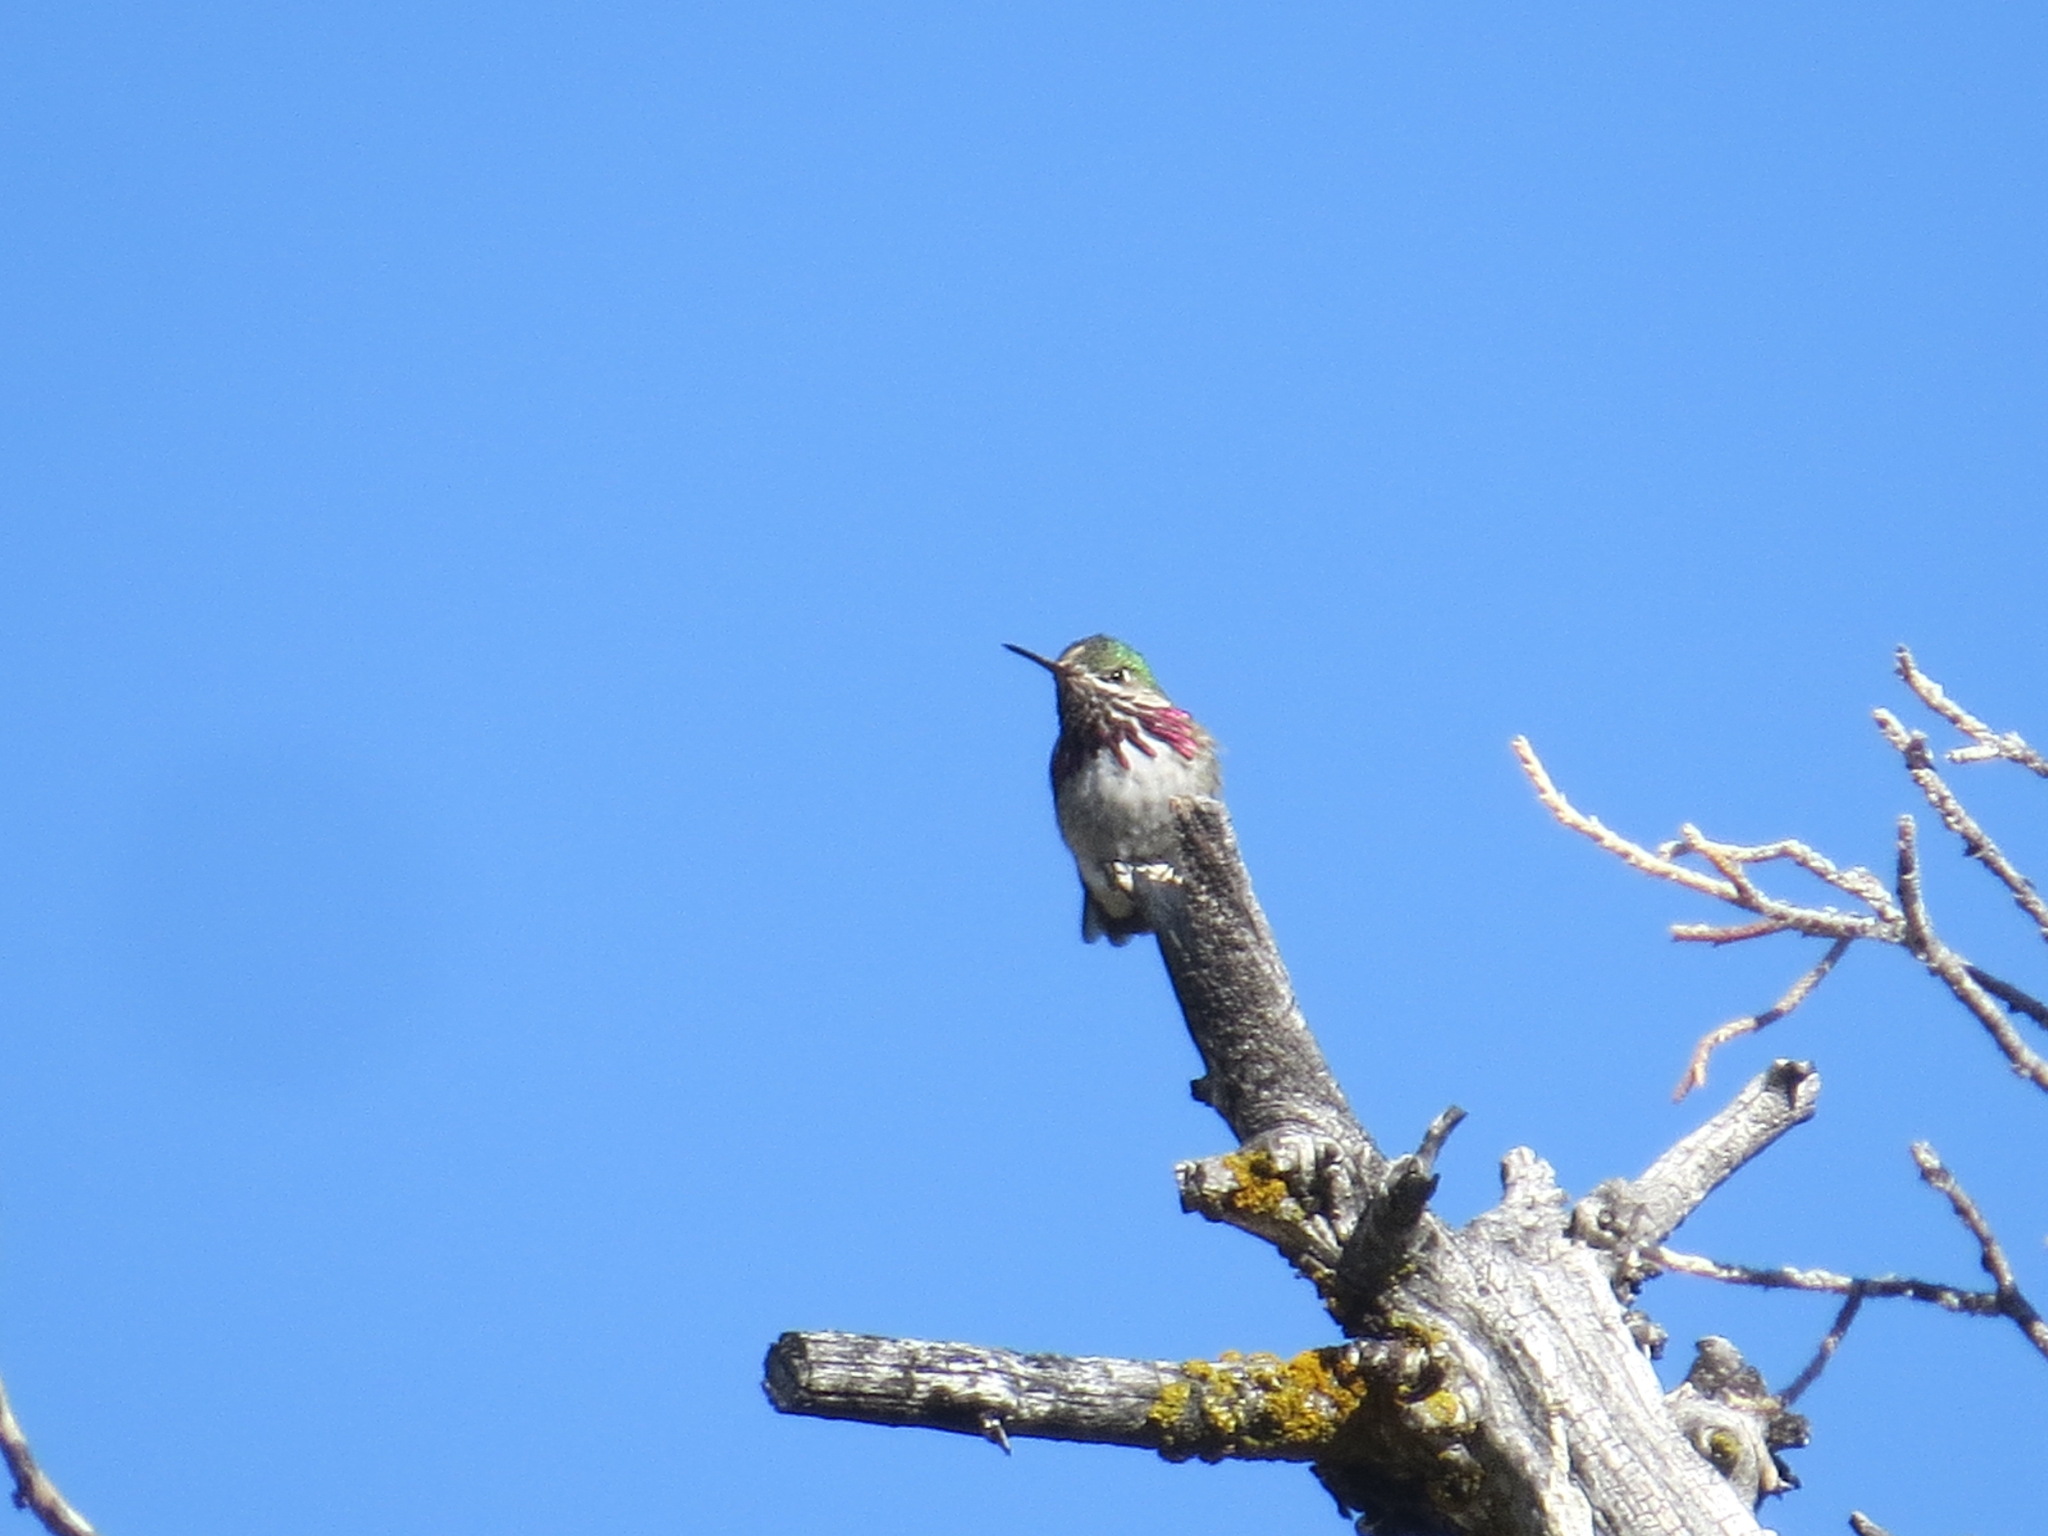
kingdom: Animalia
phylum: Chordata
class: Aves
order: Apodiformes
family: Trochilidae
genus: Selasphorus
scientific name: Selasphorus calliope
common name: Calliope hummingbird
